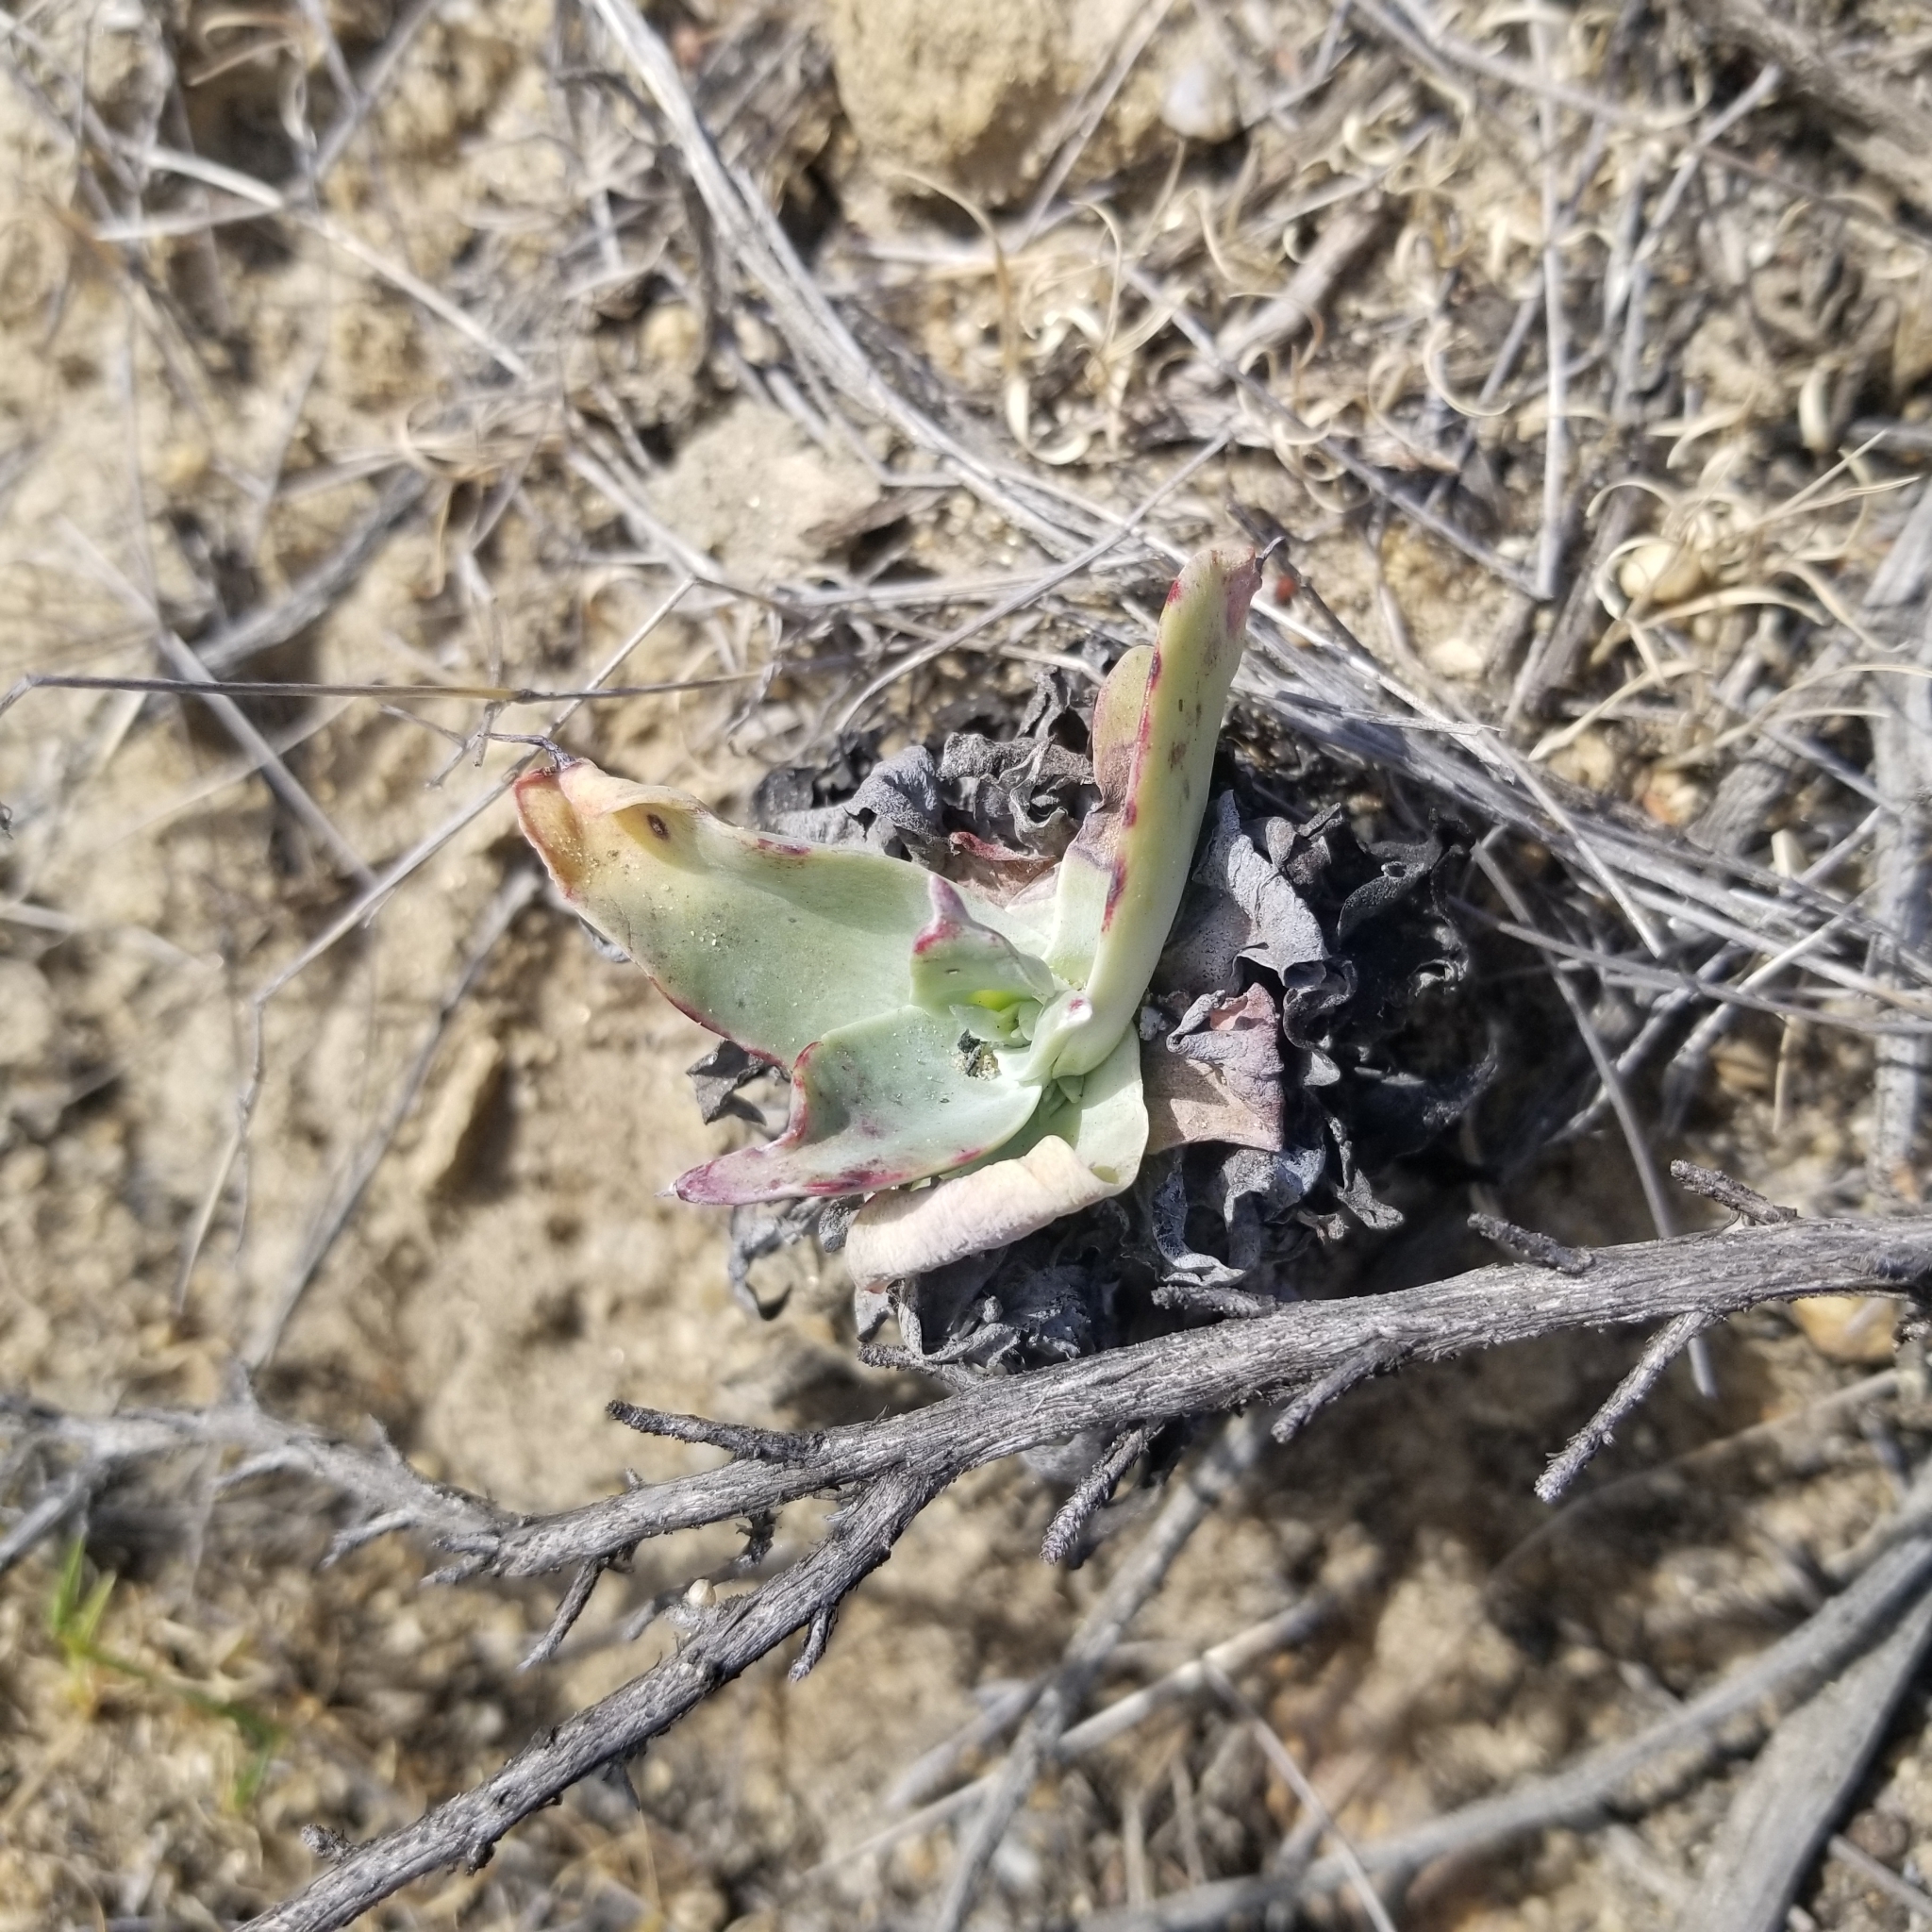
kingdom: Plantae
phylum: Tracheophyta
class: Magnoliopsida
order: Saxifragales
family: Crassulaceae
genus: Dudleya
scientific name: Dudleya pulverulenta
